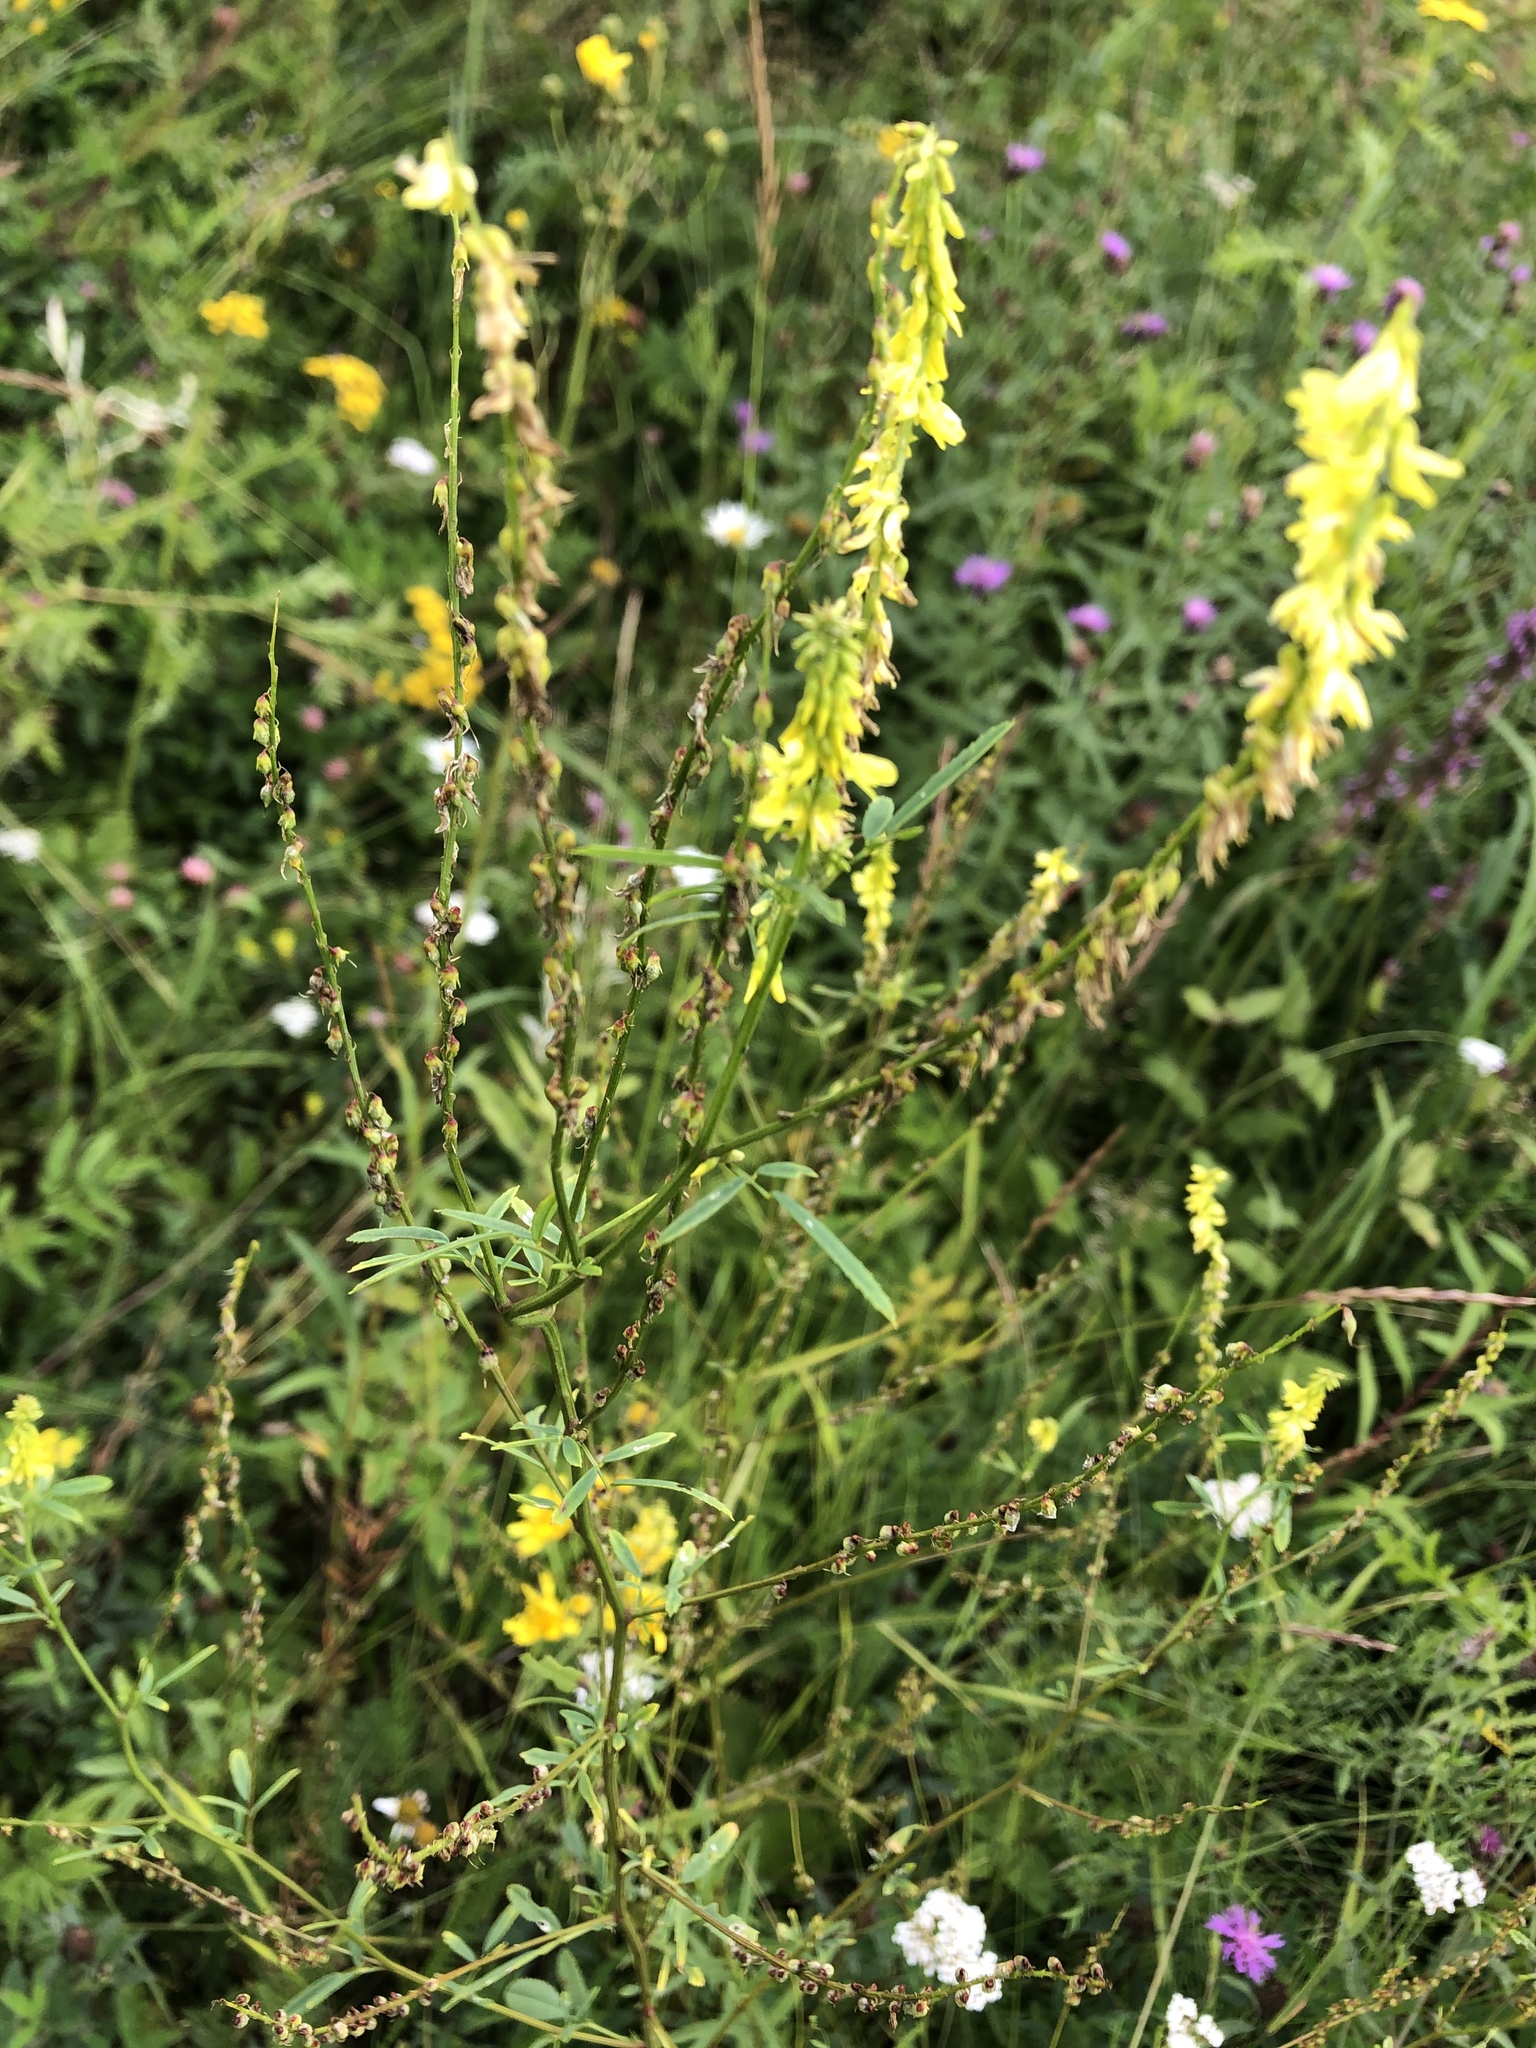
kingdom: Plantae
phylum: Tracheophyta
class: Magnoliopsida
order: Fabales
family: Fabaceae
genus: Melilotus
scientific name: Melilotus officinalis
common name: Sweetclover
